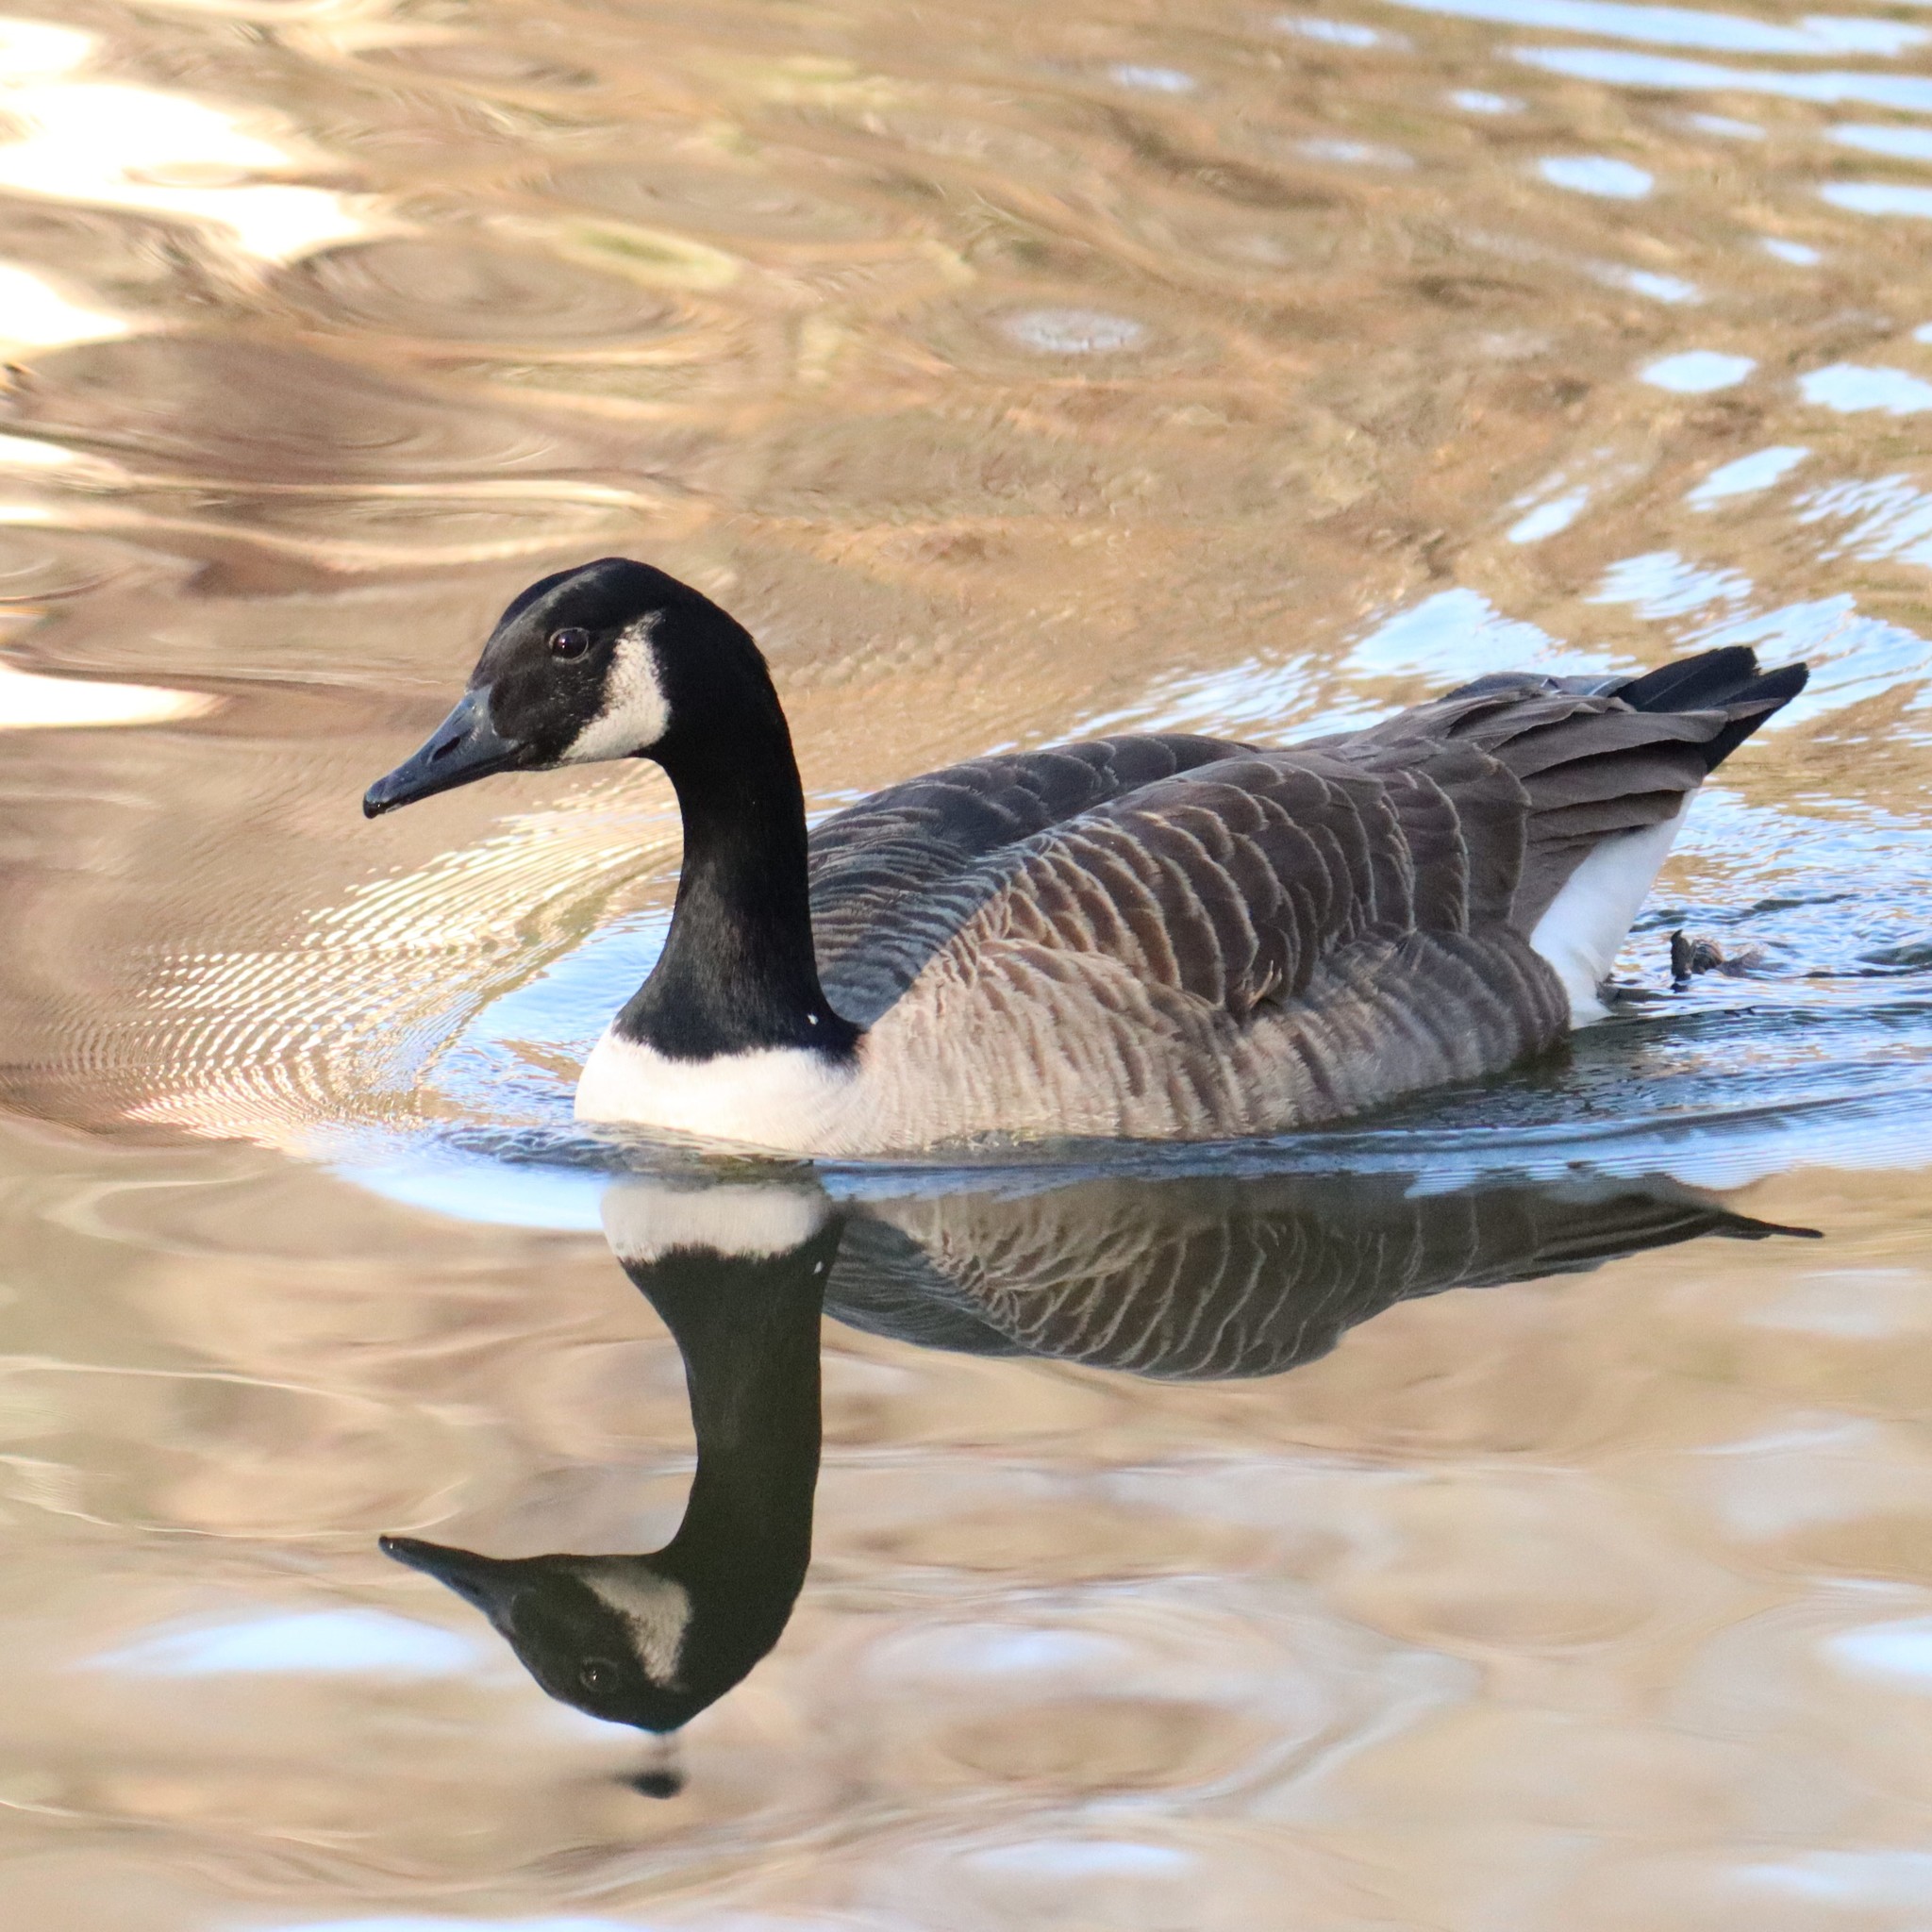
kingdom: Animalia
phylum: Chordata
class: Aves
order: Anseriformes
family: Anatidae
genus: Branta
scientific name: Branta canadensis
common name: Canada goose
